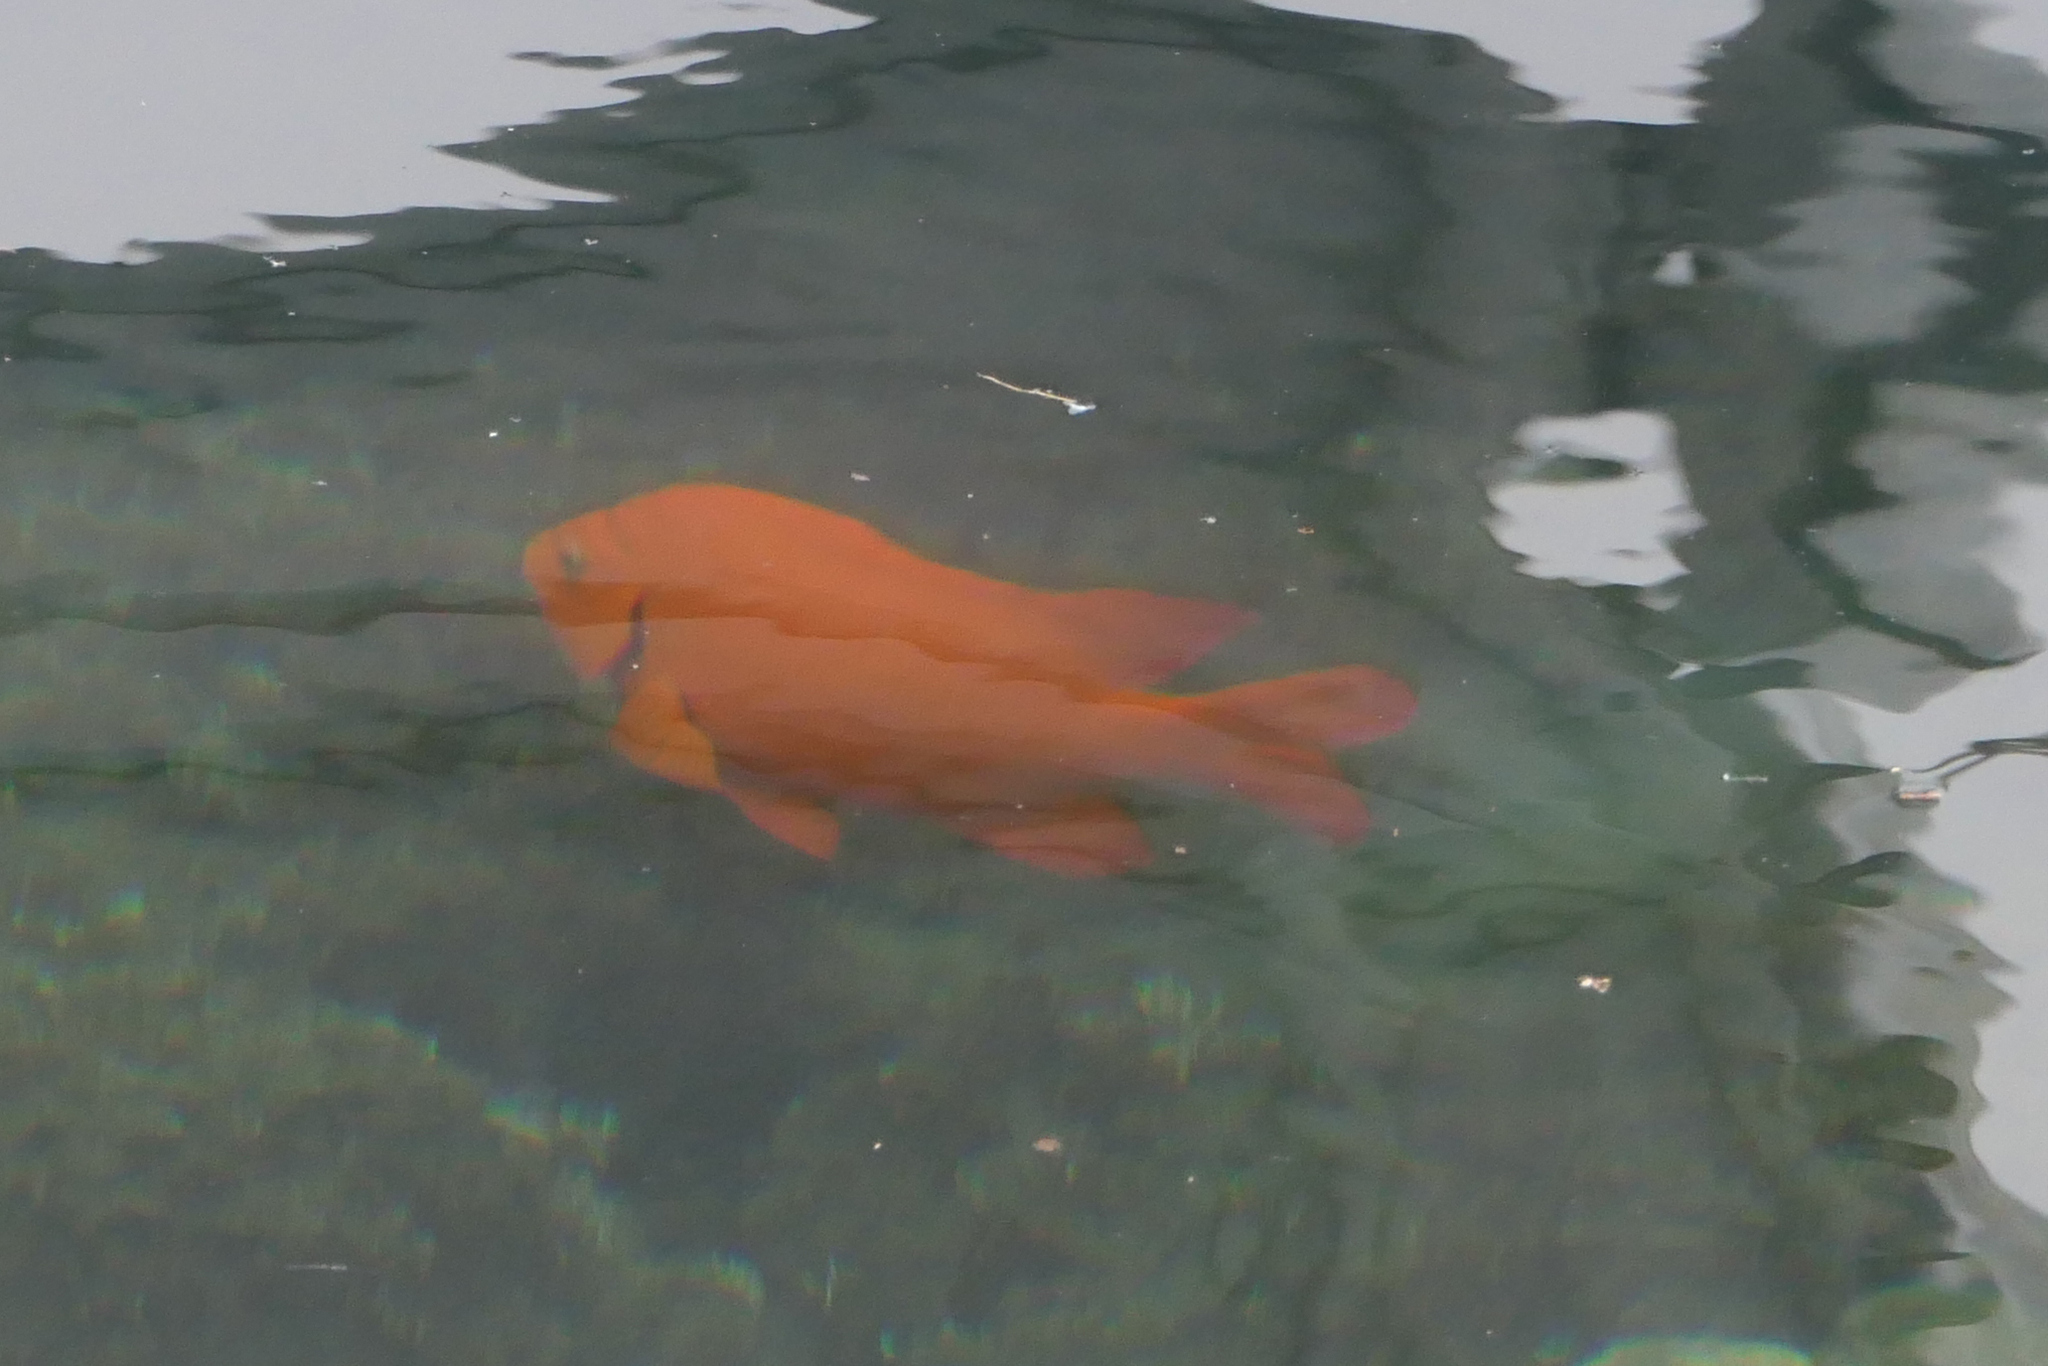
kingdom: Animalia
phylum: Chordata
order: Perciformes
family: Pomacentridae
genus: Hypsypops
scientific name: Hypsypops rubicundus
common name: Garibaldi
